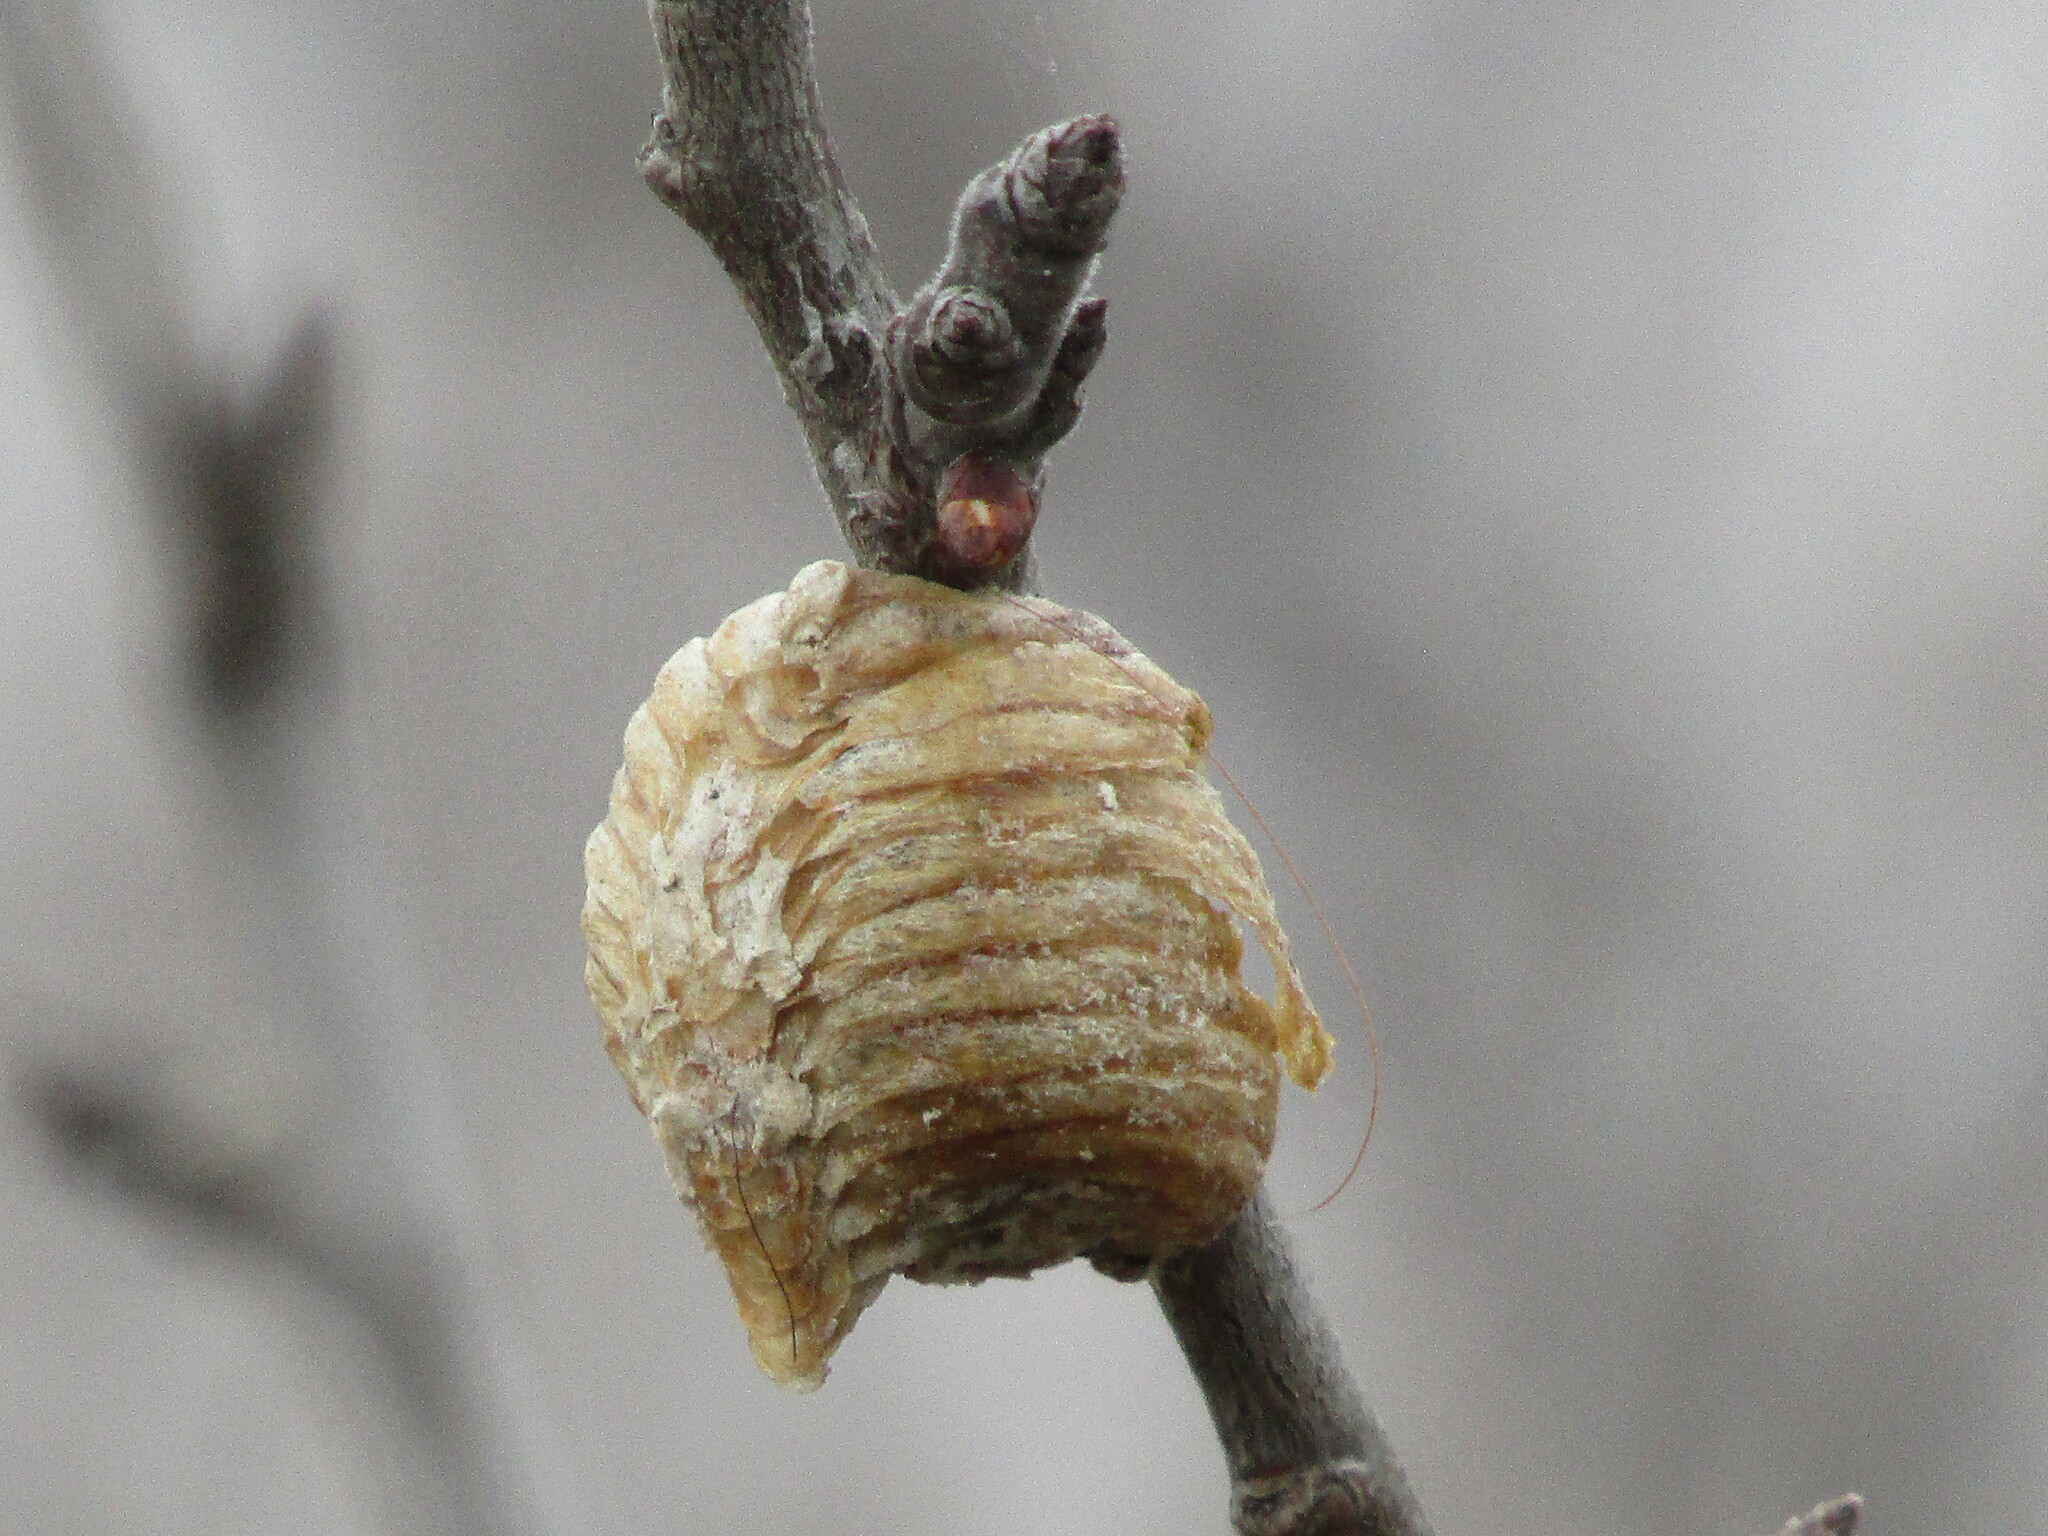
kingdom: Animalia
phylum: Arthropoda
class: Insecta
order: Mantodea
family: Mantidae
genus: Hierodula
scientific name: Hierodula transcaucasica
